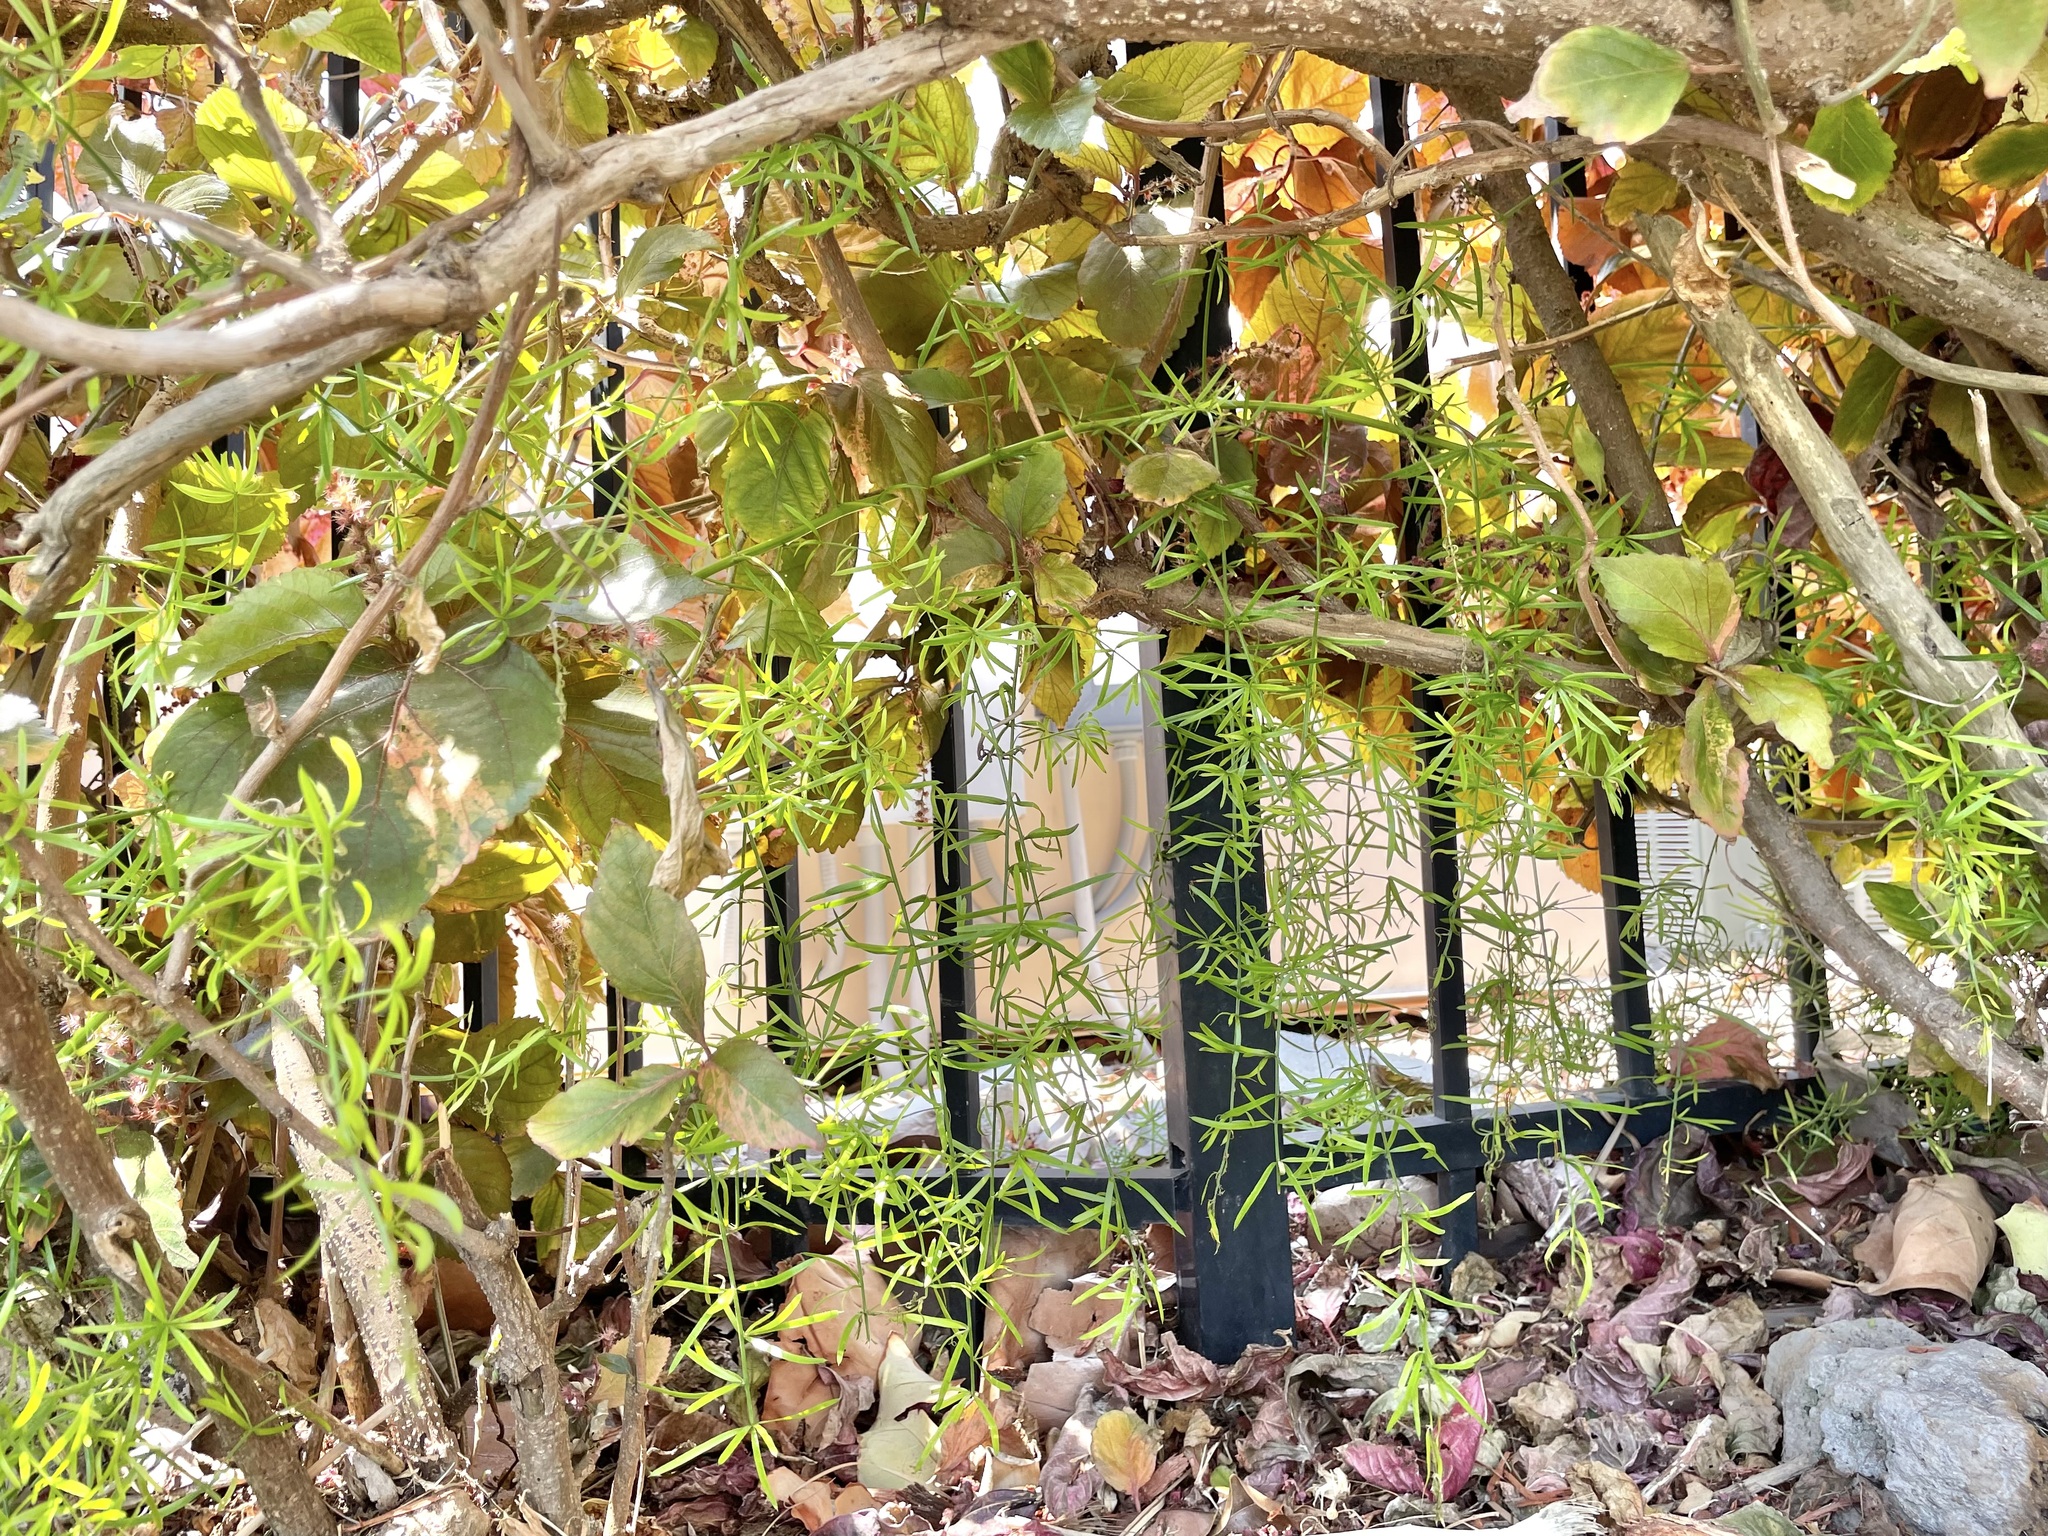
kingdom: Plantae
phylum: Tracheophyta
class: Liliopsida
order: Asparagales
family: Asparagaceae
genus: Asparagus
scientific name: Asparagus aethiopicus
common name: Sprenger's asparagus fern
